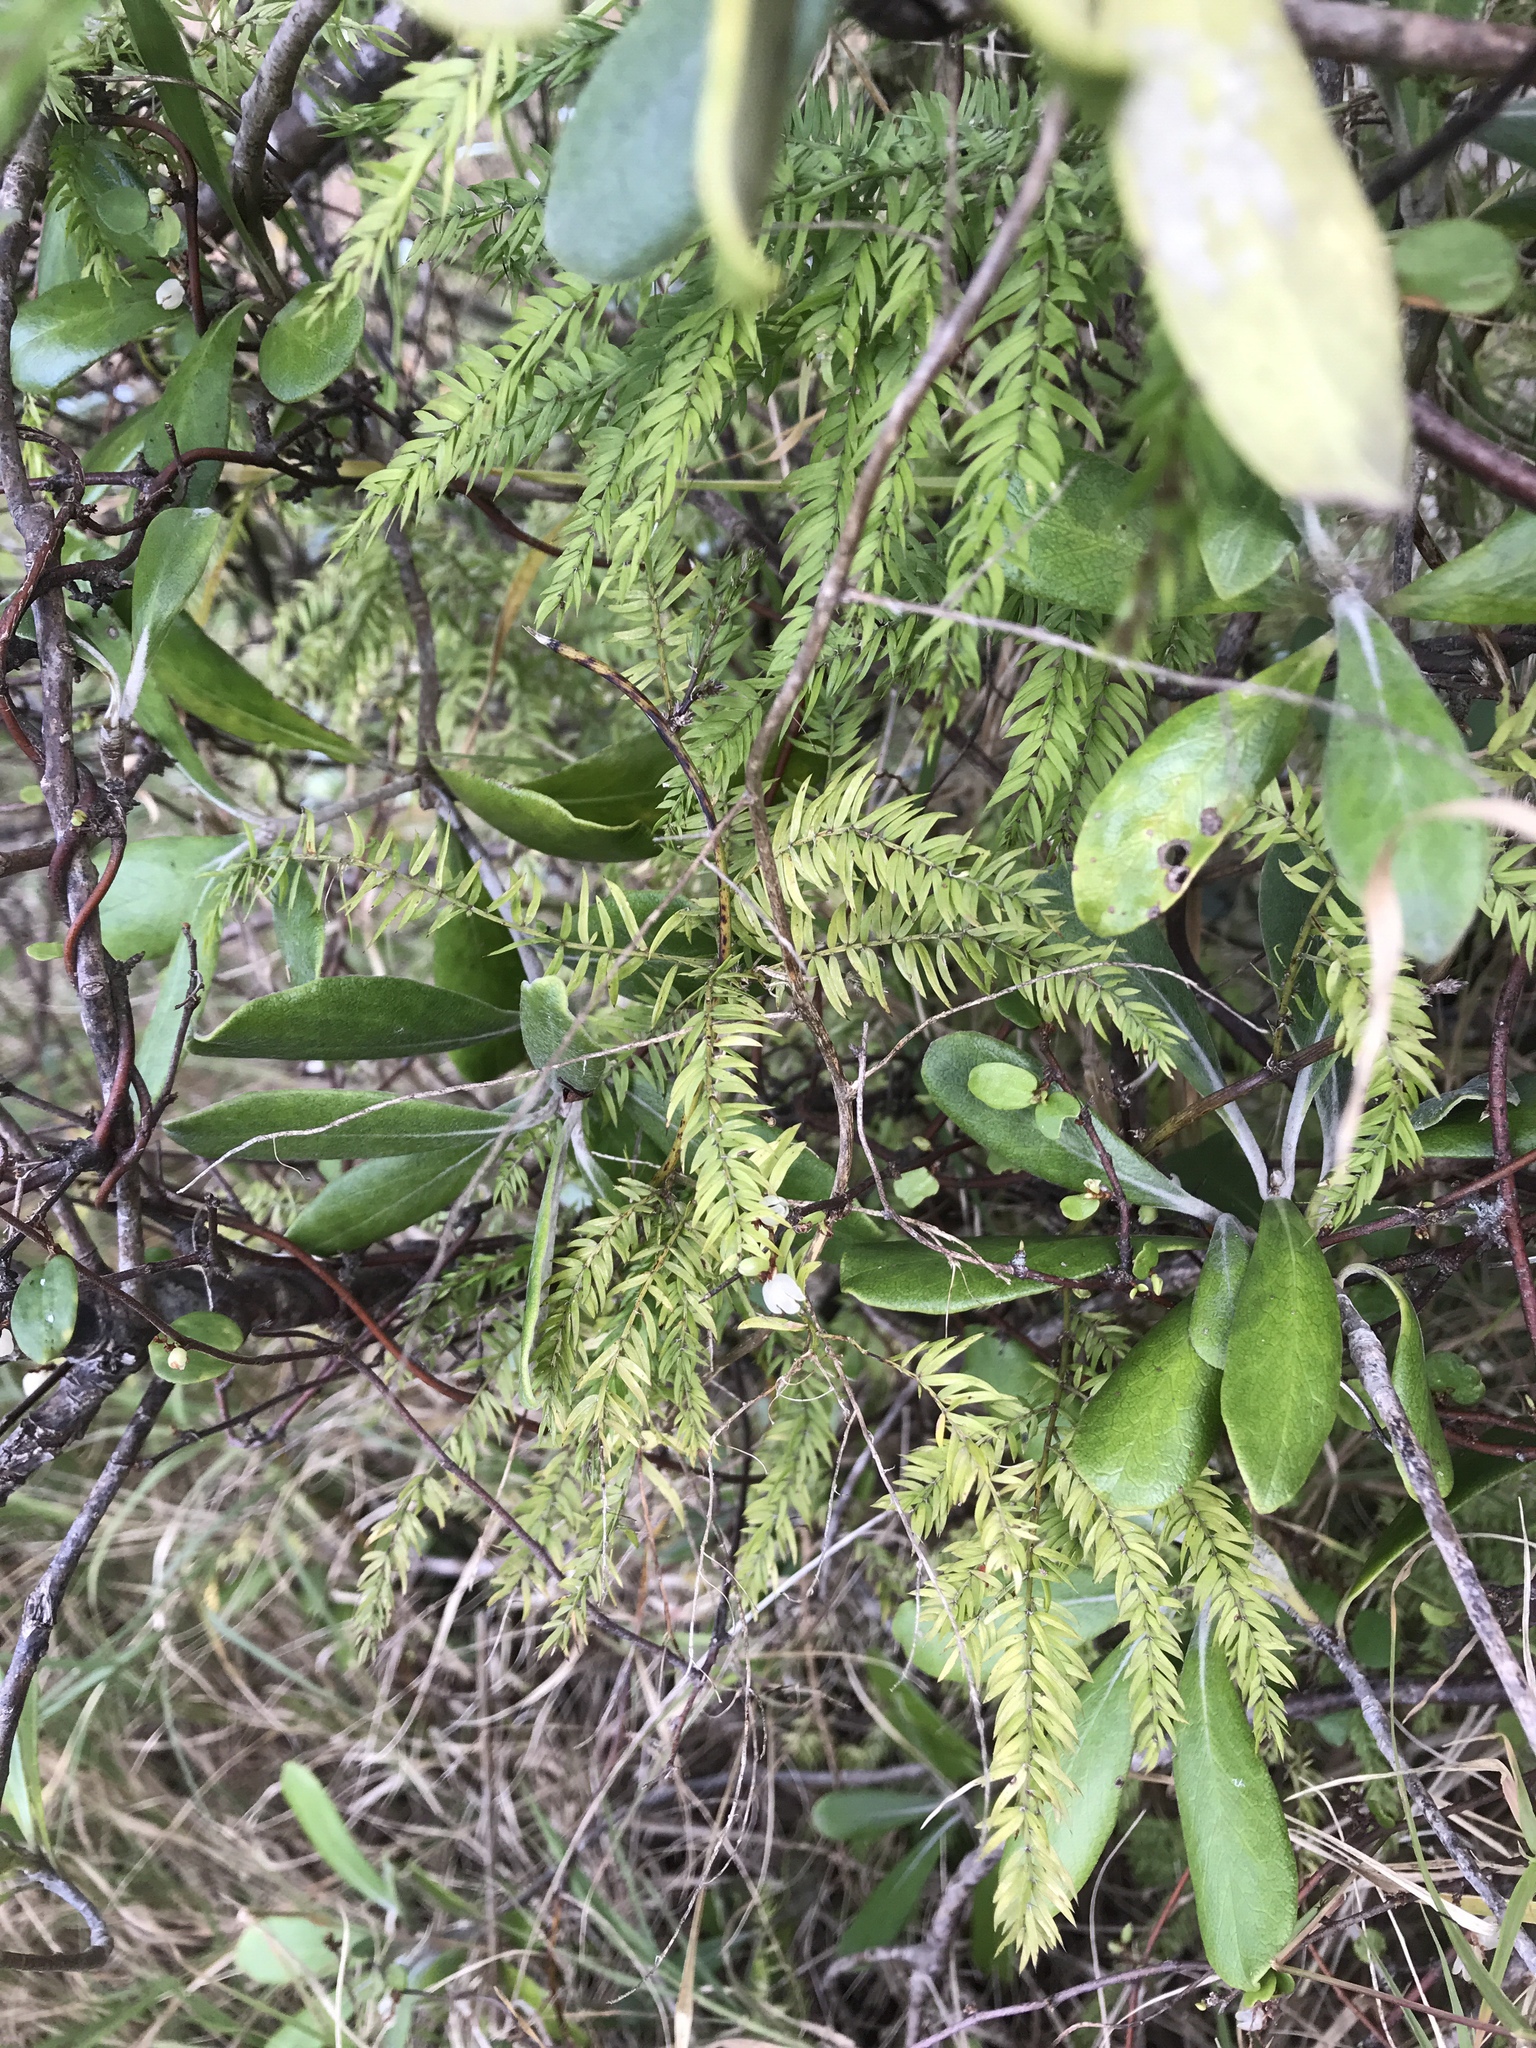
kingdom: Plantae
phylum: Tracheophyta
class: Liliopsida
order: Asparagales
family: Asparagaceae
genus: Asparagus
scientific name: Asparagus scandens
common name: Asparagus-fern
